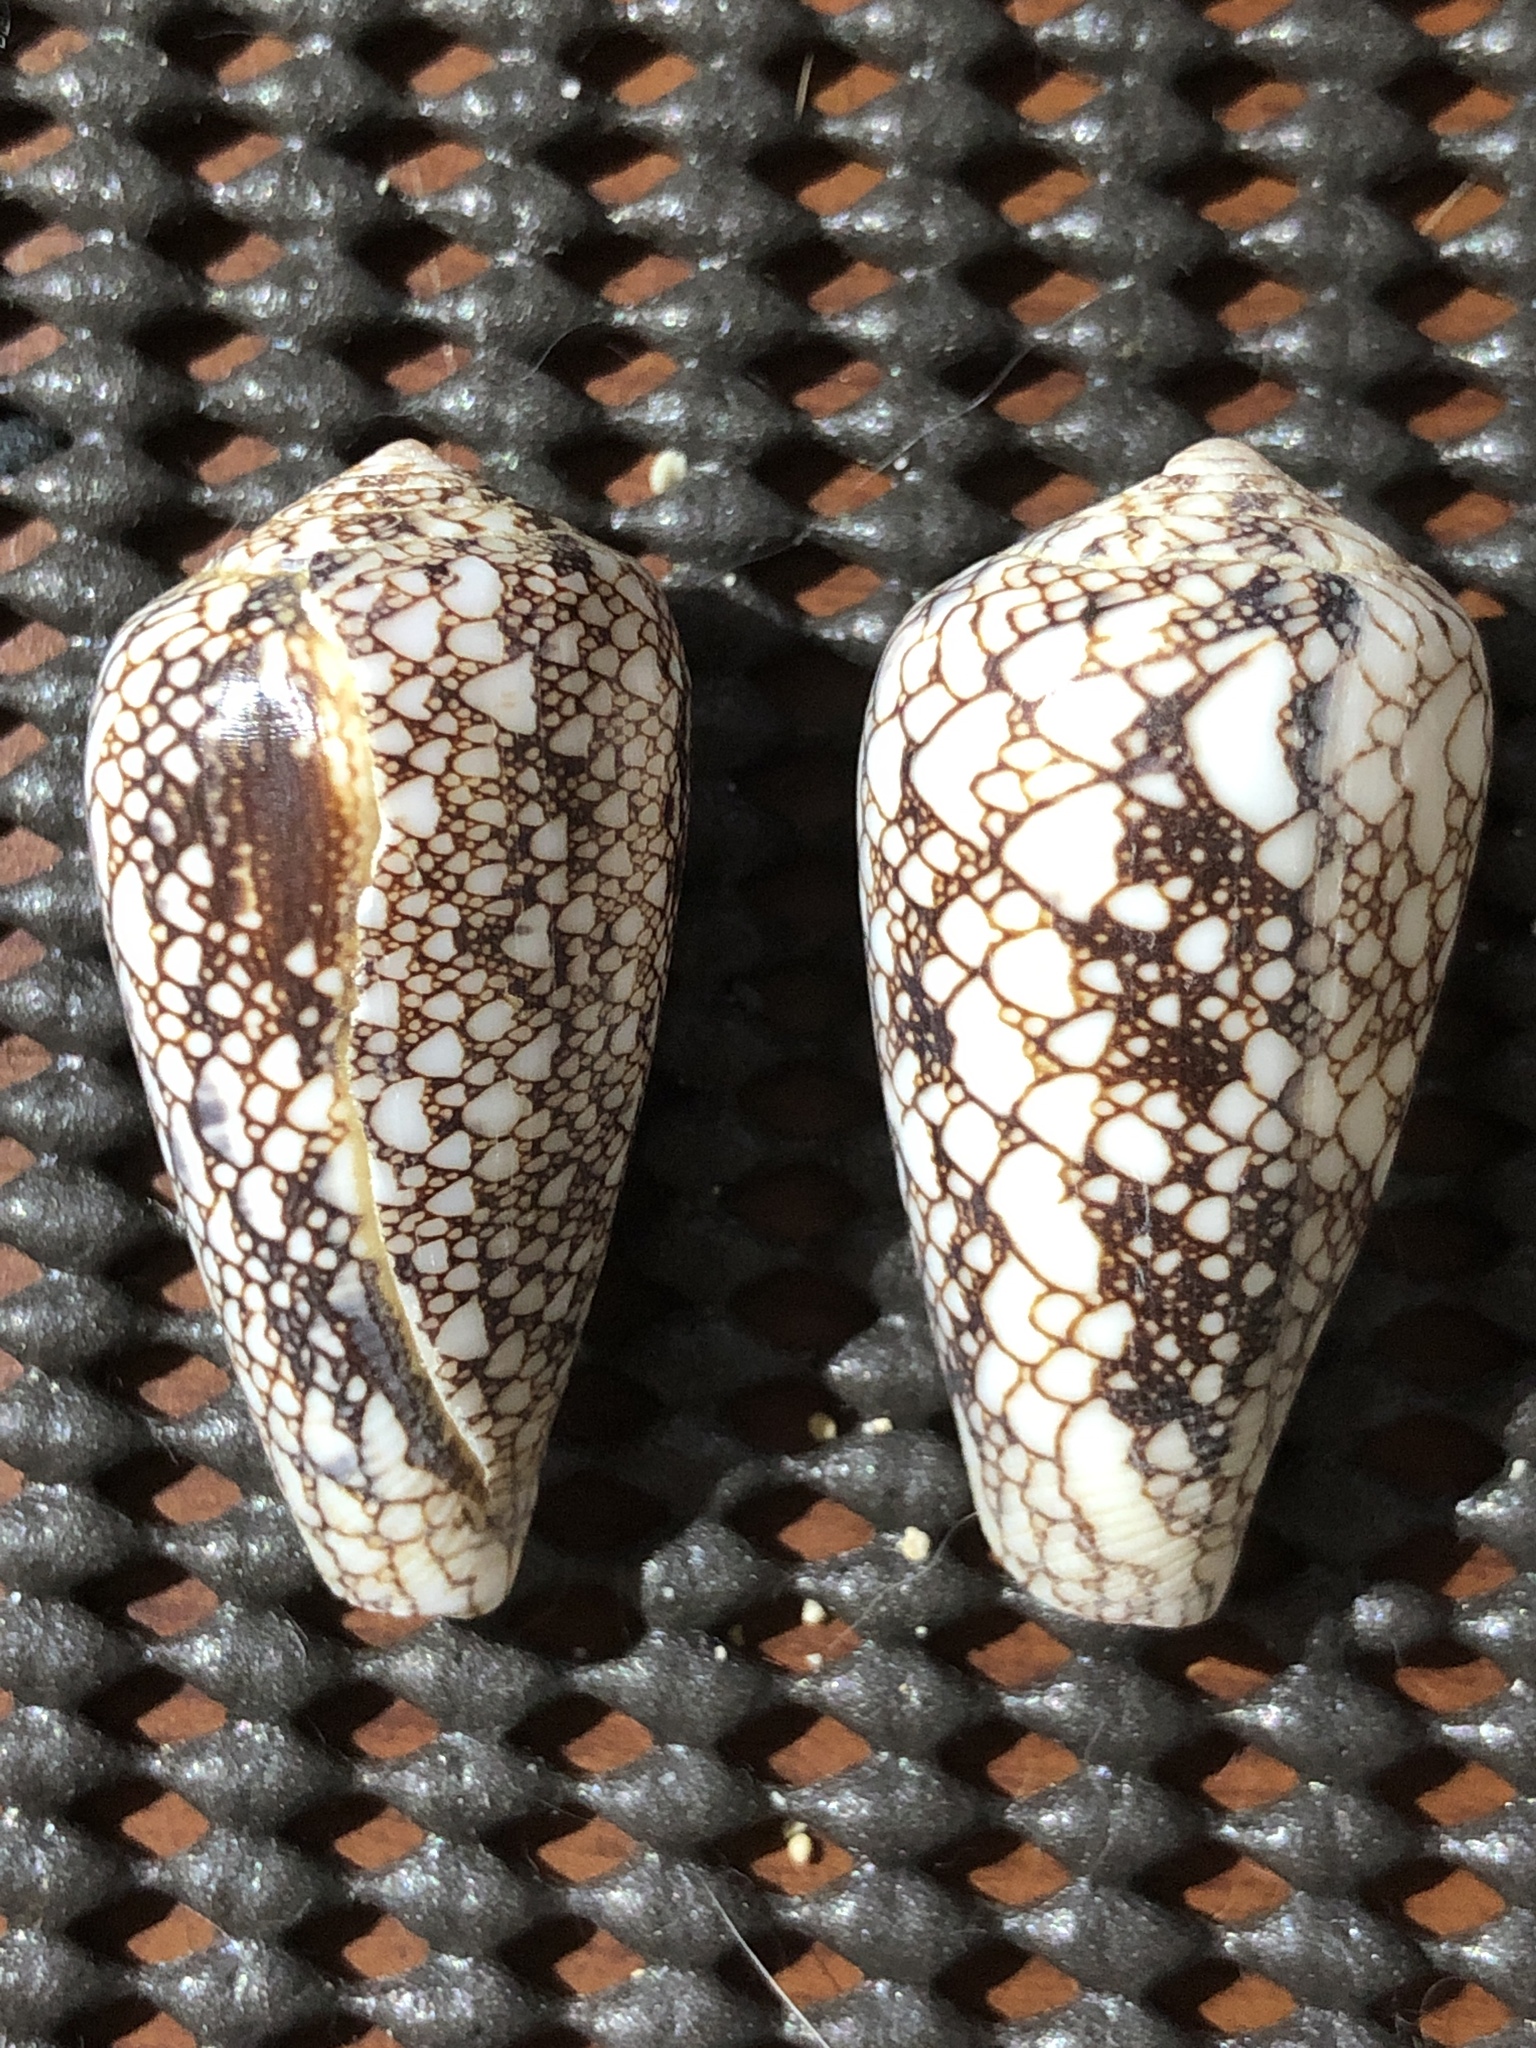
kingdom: Animalia
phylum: Mollusca
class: Gastropoda
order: Neogastropoda
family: Conidae
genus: Conus
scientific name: Conus omaria
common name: Omaria cone
